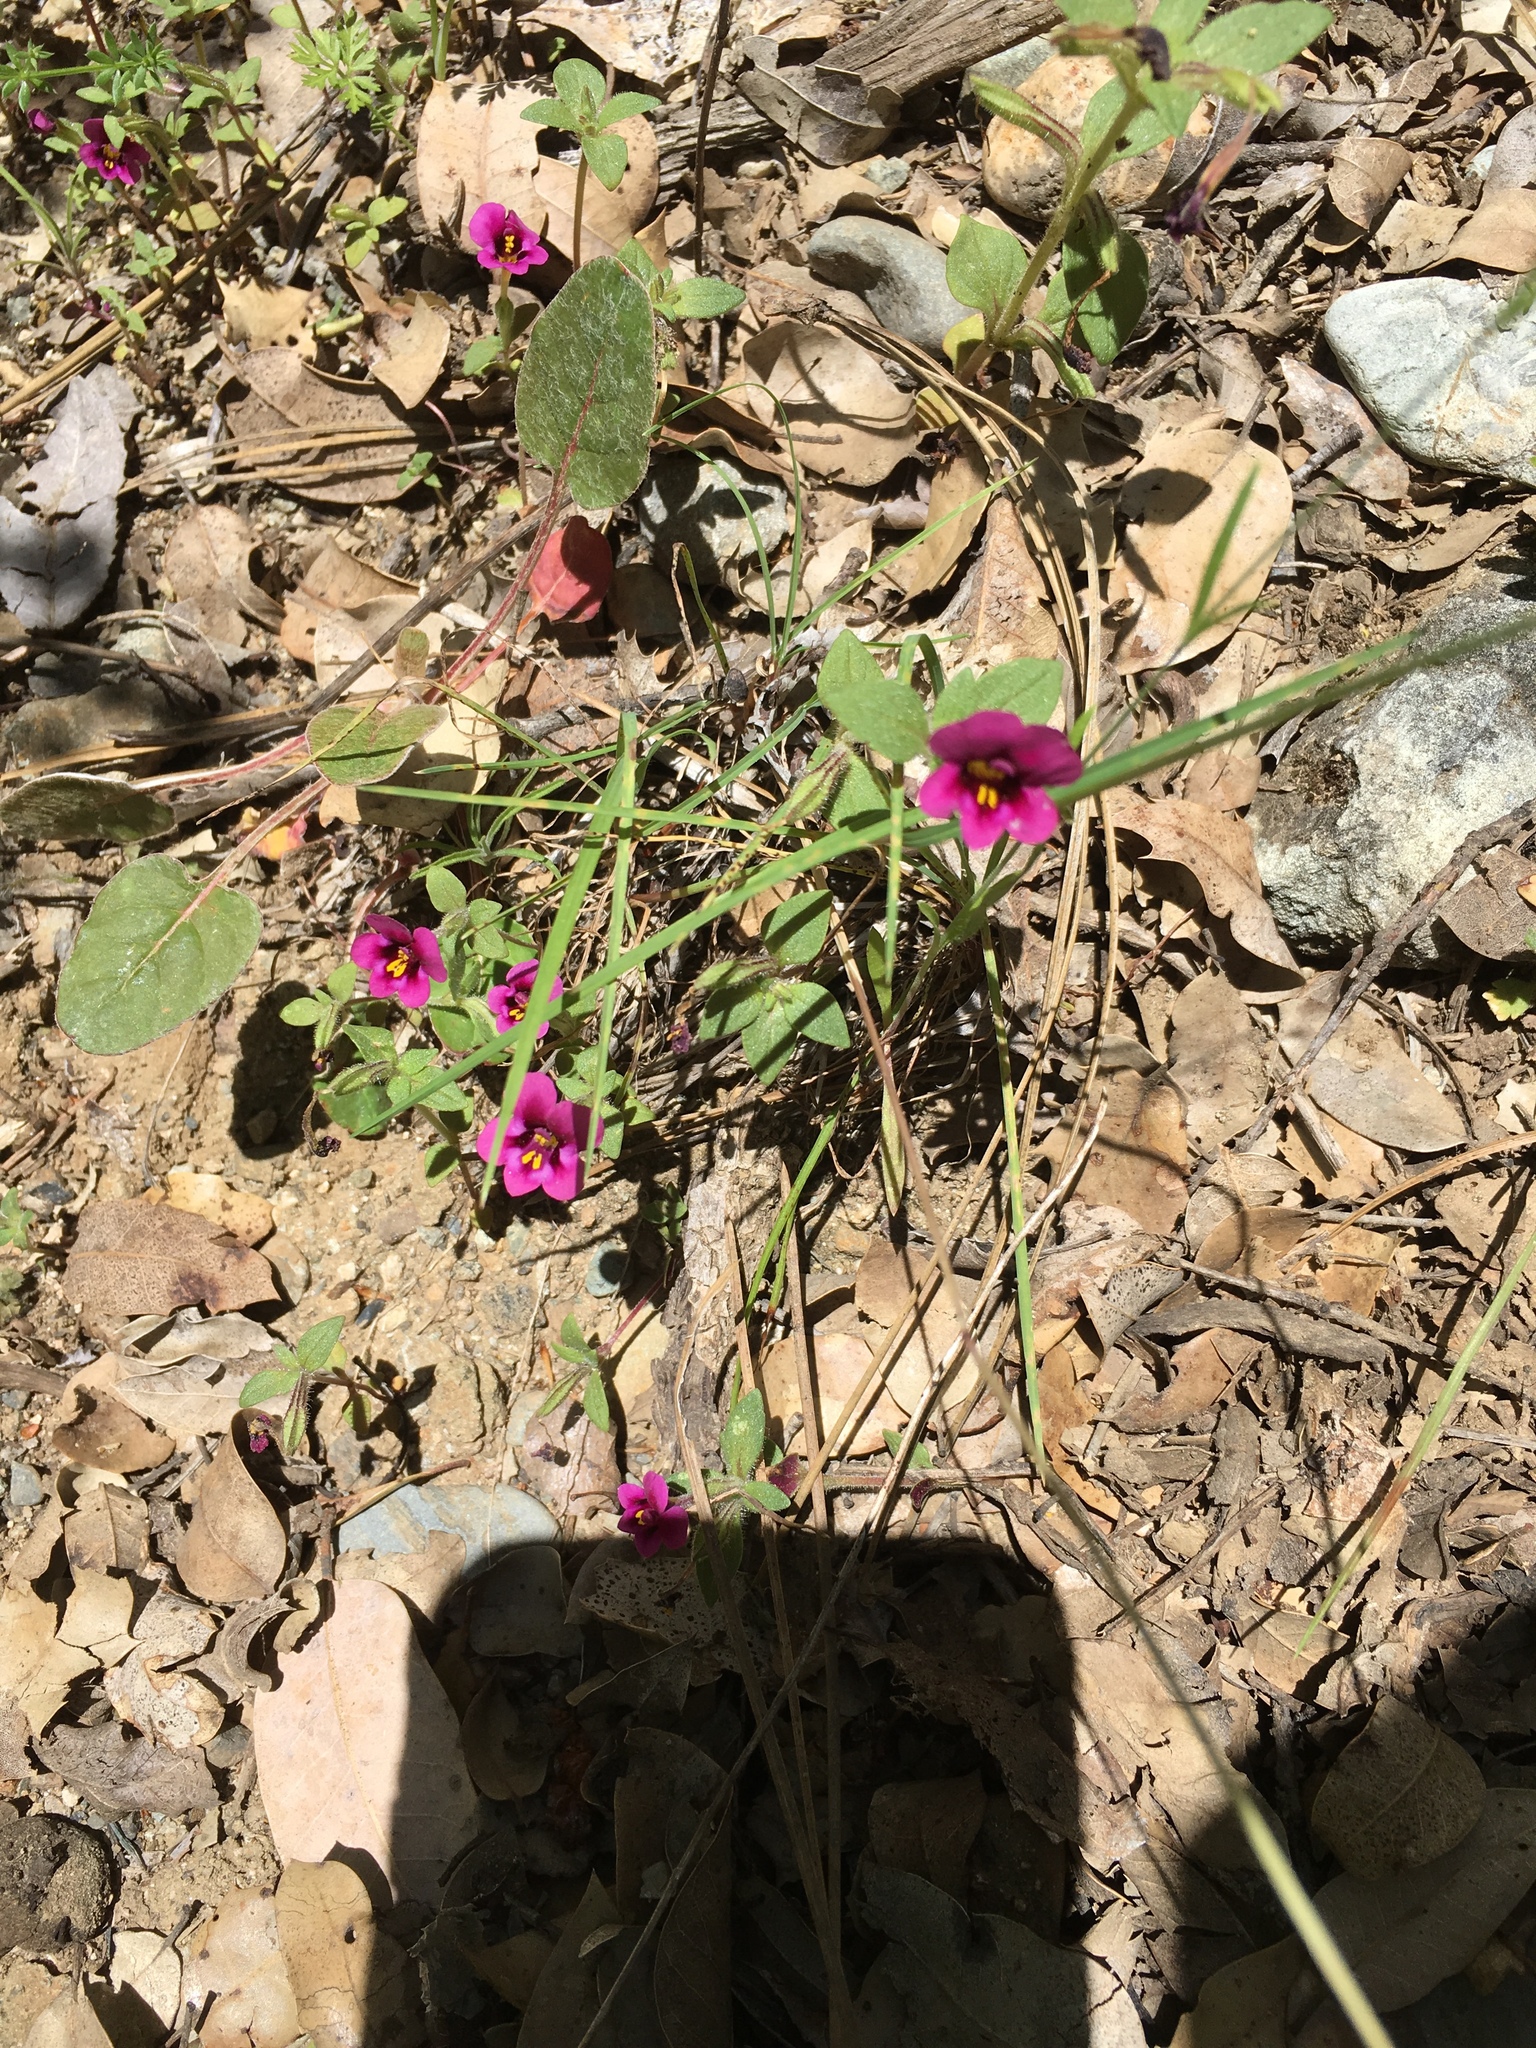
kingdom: Plantae
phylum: Tracheophyta
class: Magnoliopsida
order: Lamiales
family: Phrymaceae
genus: Diplacus
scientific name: Diplacus kelloggii
